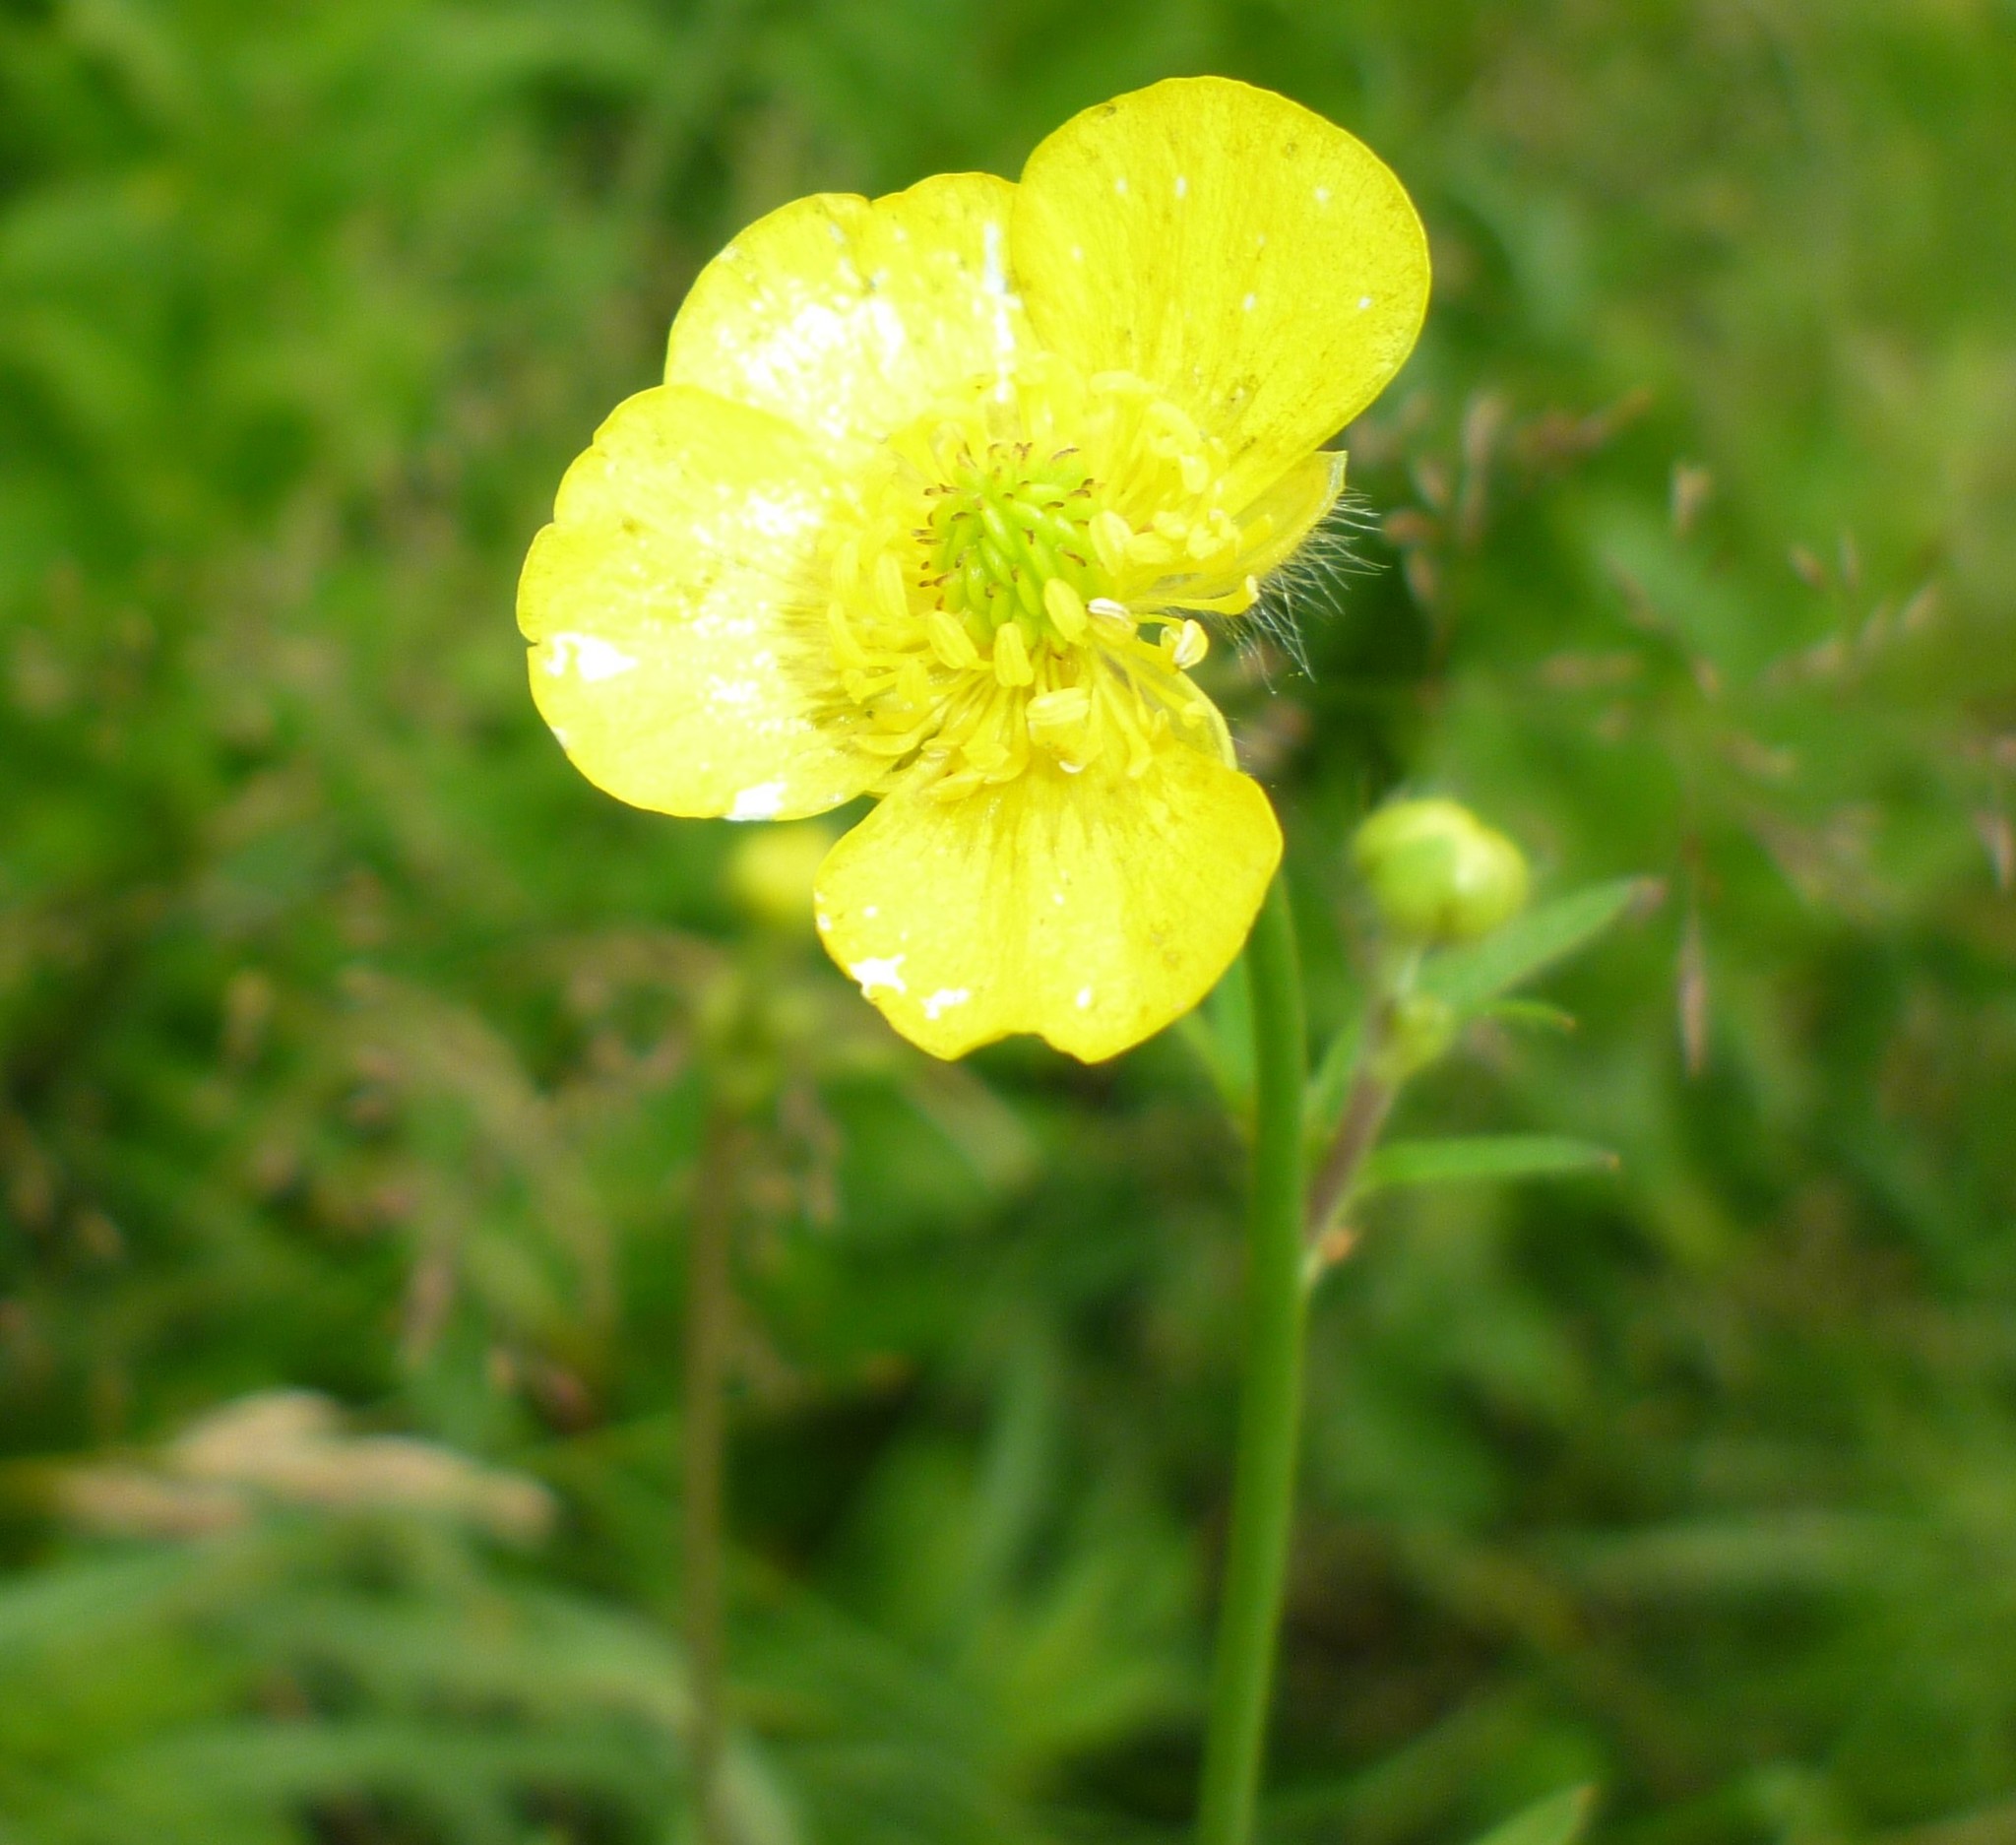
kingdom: Plantae
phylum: Tracheophyta
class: Magnoliopsida
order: Ranunculales
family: Ranunculaceae
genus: Ranunculus
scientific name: Ranunculus acris
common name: Meadow buttercup
